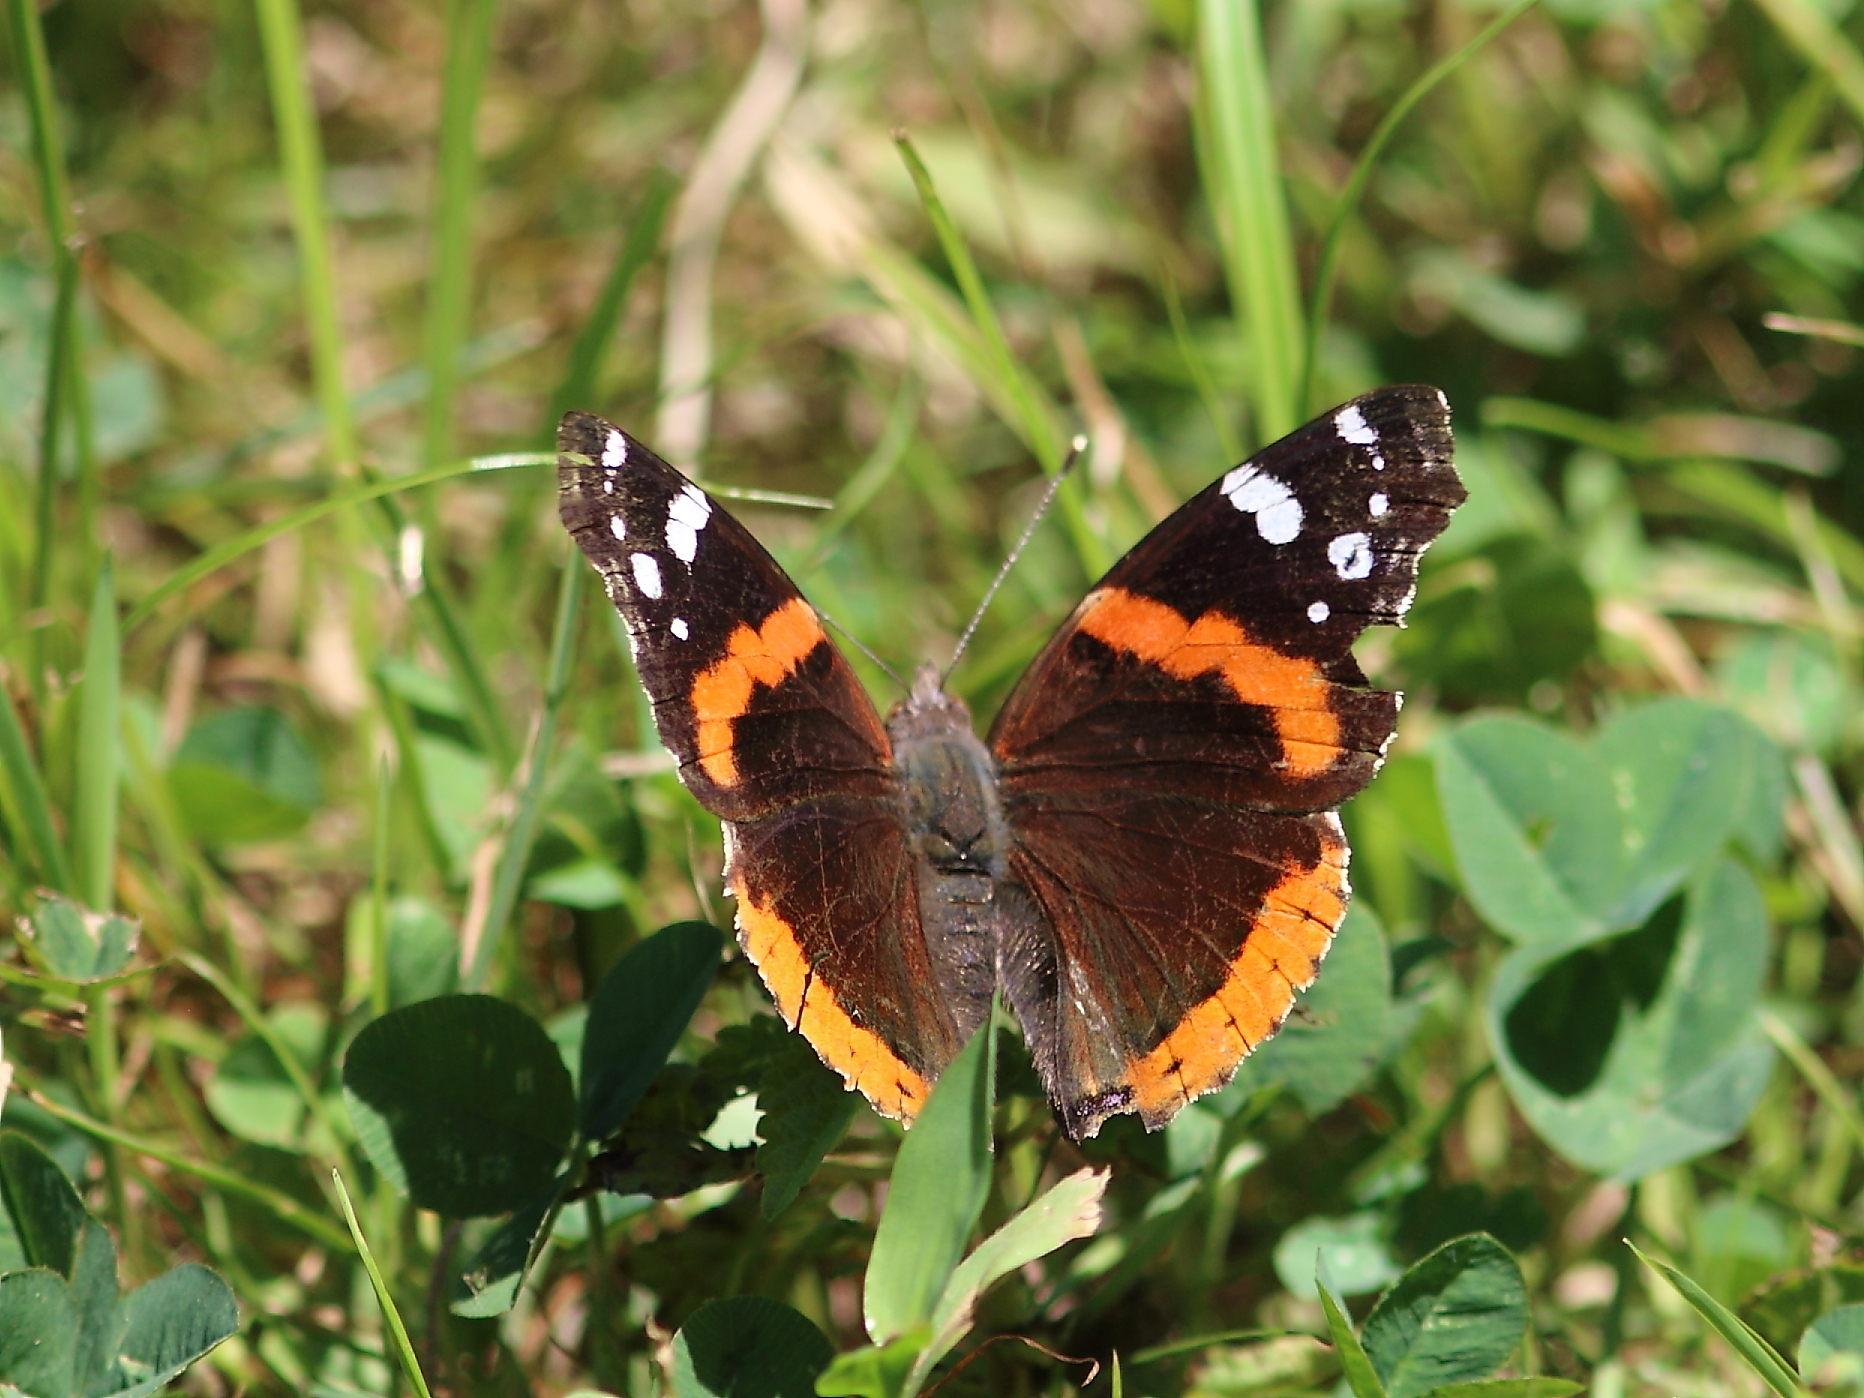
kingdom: Animalia
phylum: Arthropoda
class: Insecta
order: Lepidoptera
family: Nymphalidae
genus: Vanessa
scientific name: Vanessa atalanta
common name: Red admiral
